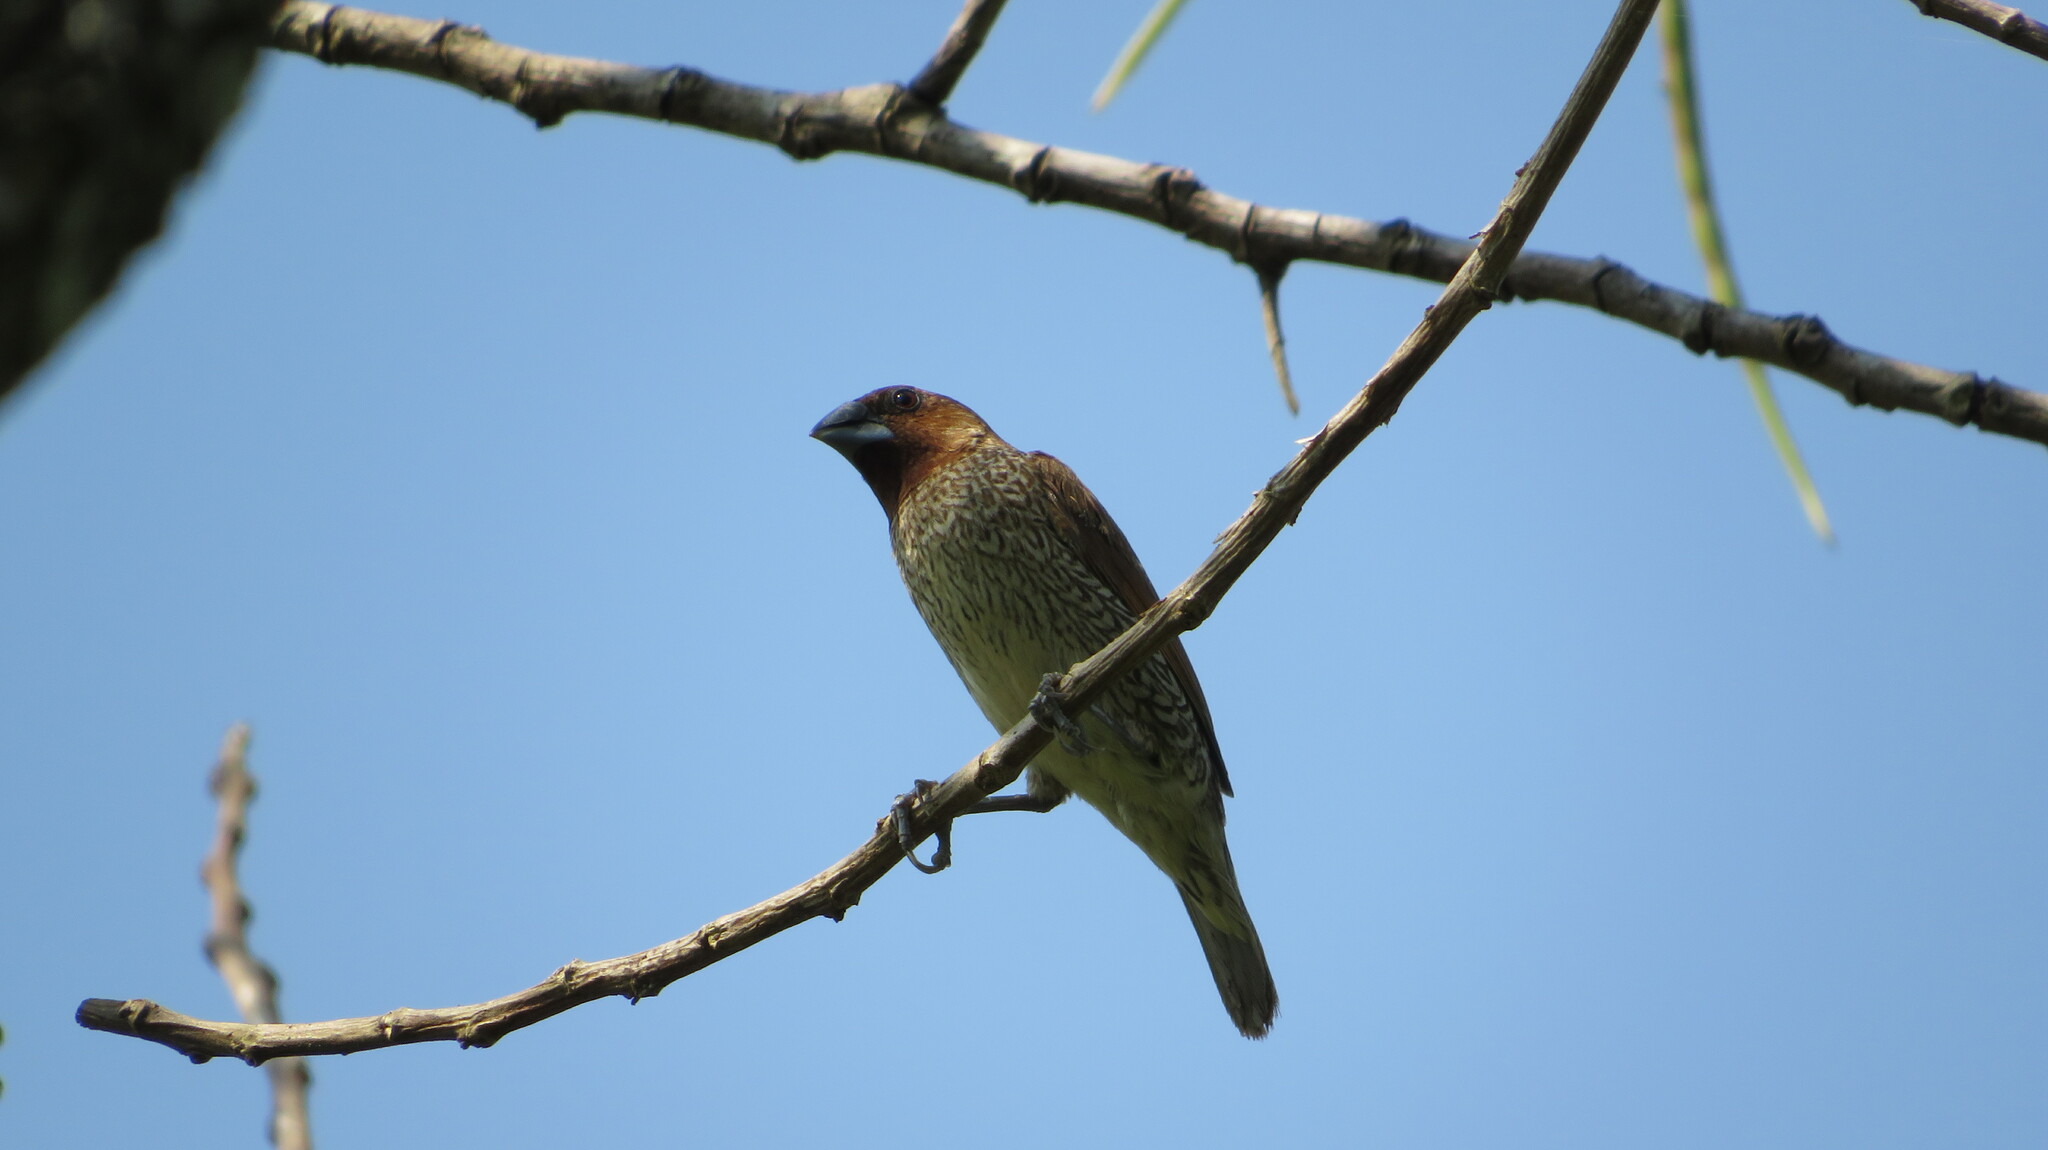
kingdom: Animalia
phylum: Chordata
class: Aves
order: Passeriformes
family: Estrildidae
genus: Lonchura
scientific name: Lonchura punctulata
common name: Scaly-breasted munia
